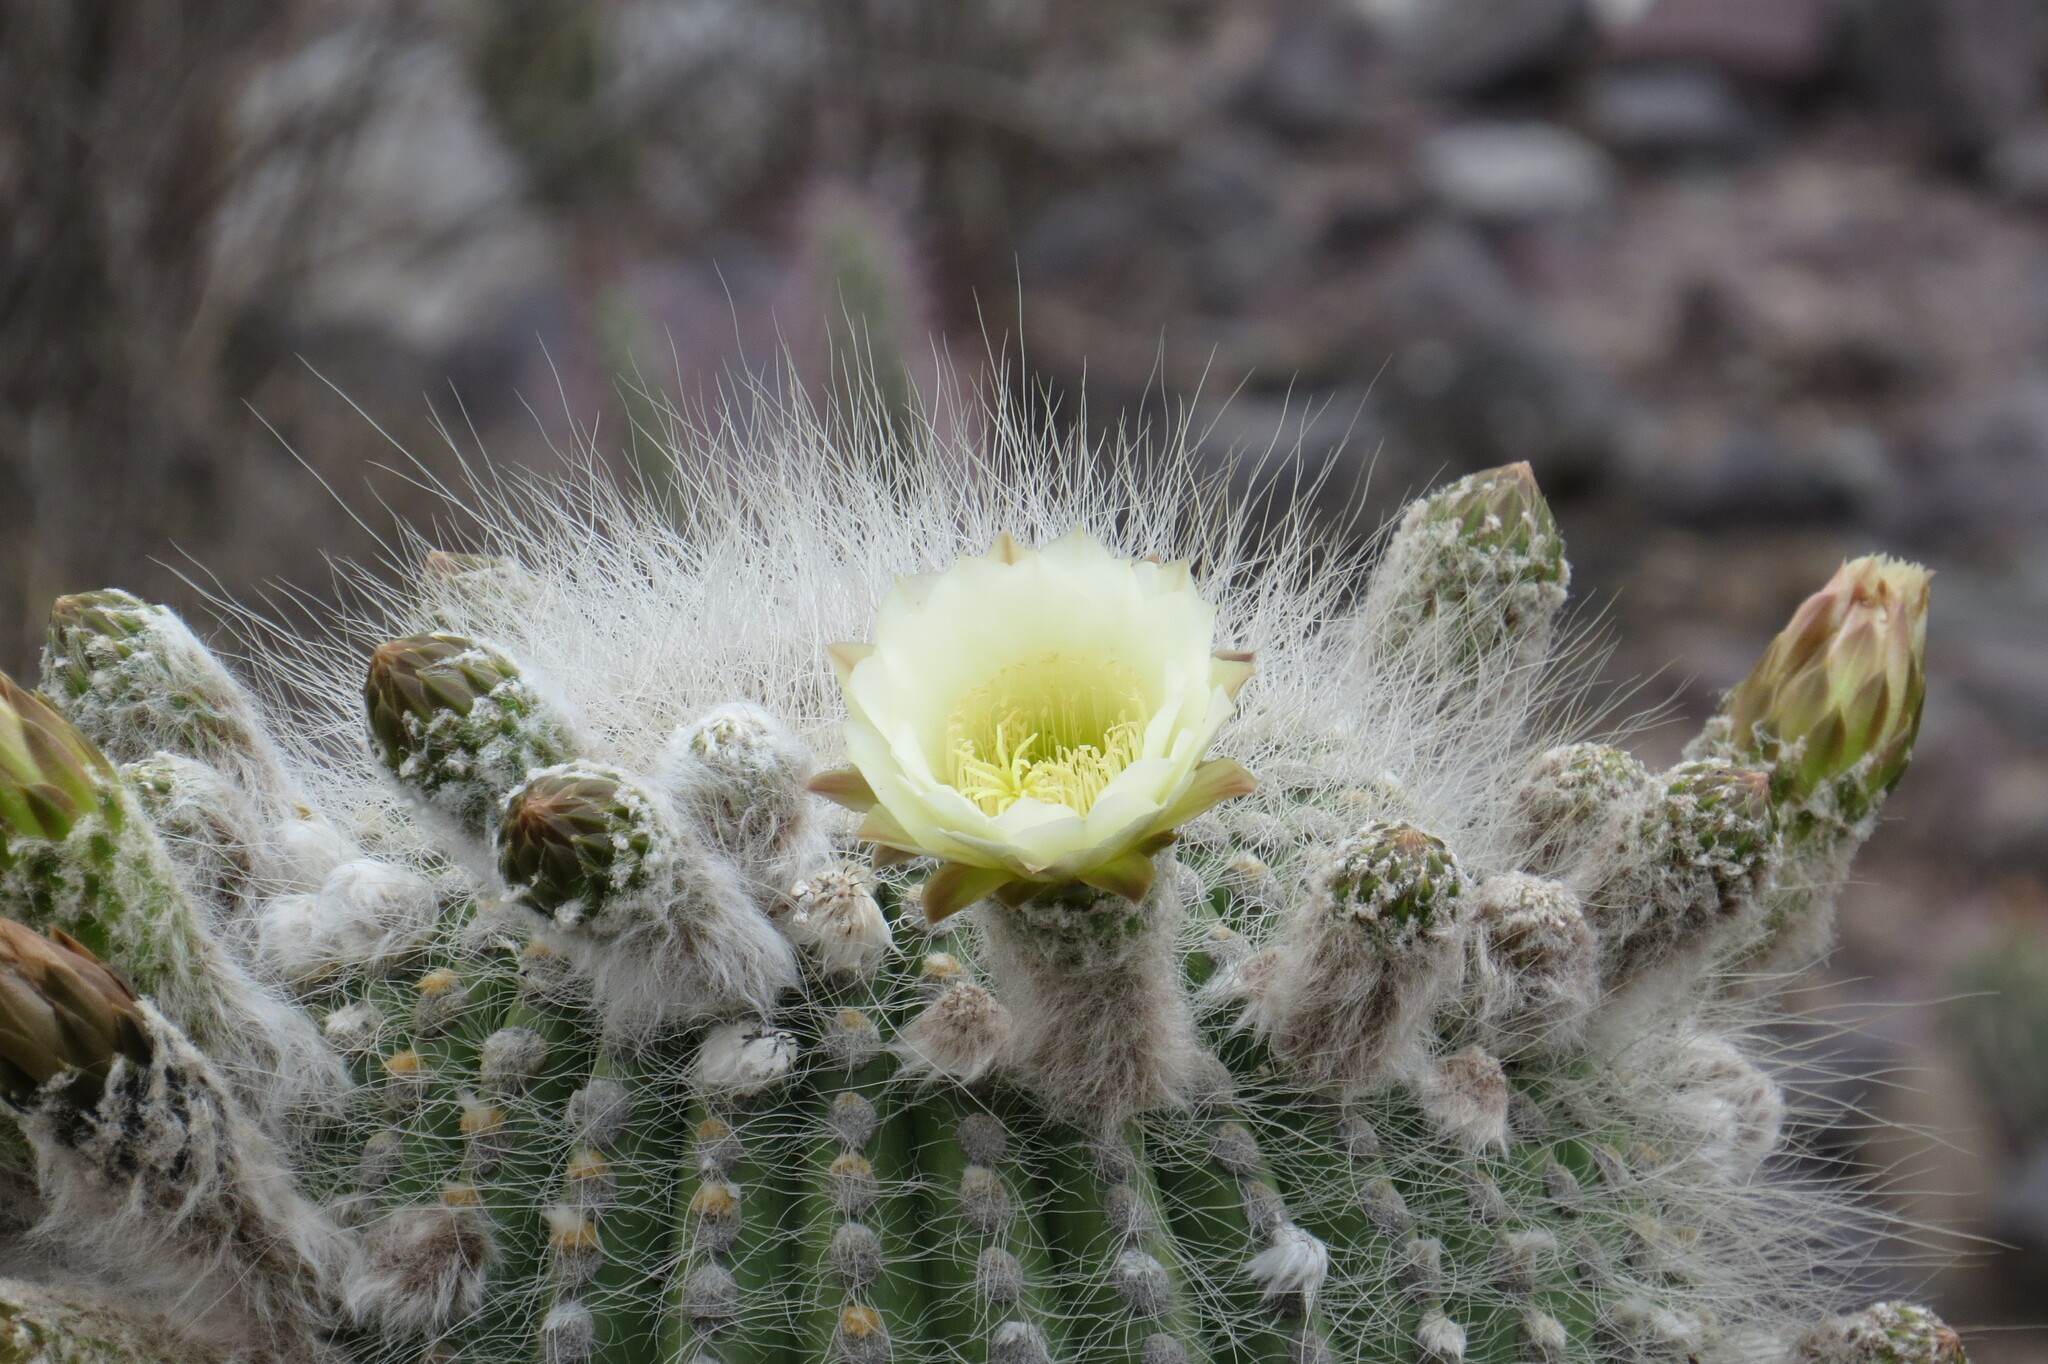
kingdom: Plantae
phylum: Tracheophyta
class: Magnoliopsida
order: Caryophyllales
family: Cactaceae
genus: Leucostele
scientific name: Leucostele atacamensis
